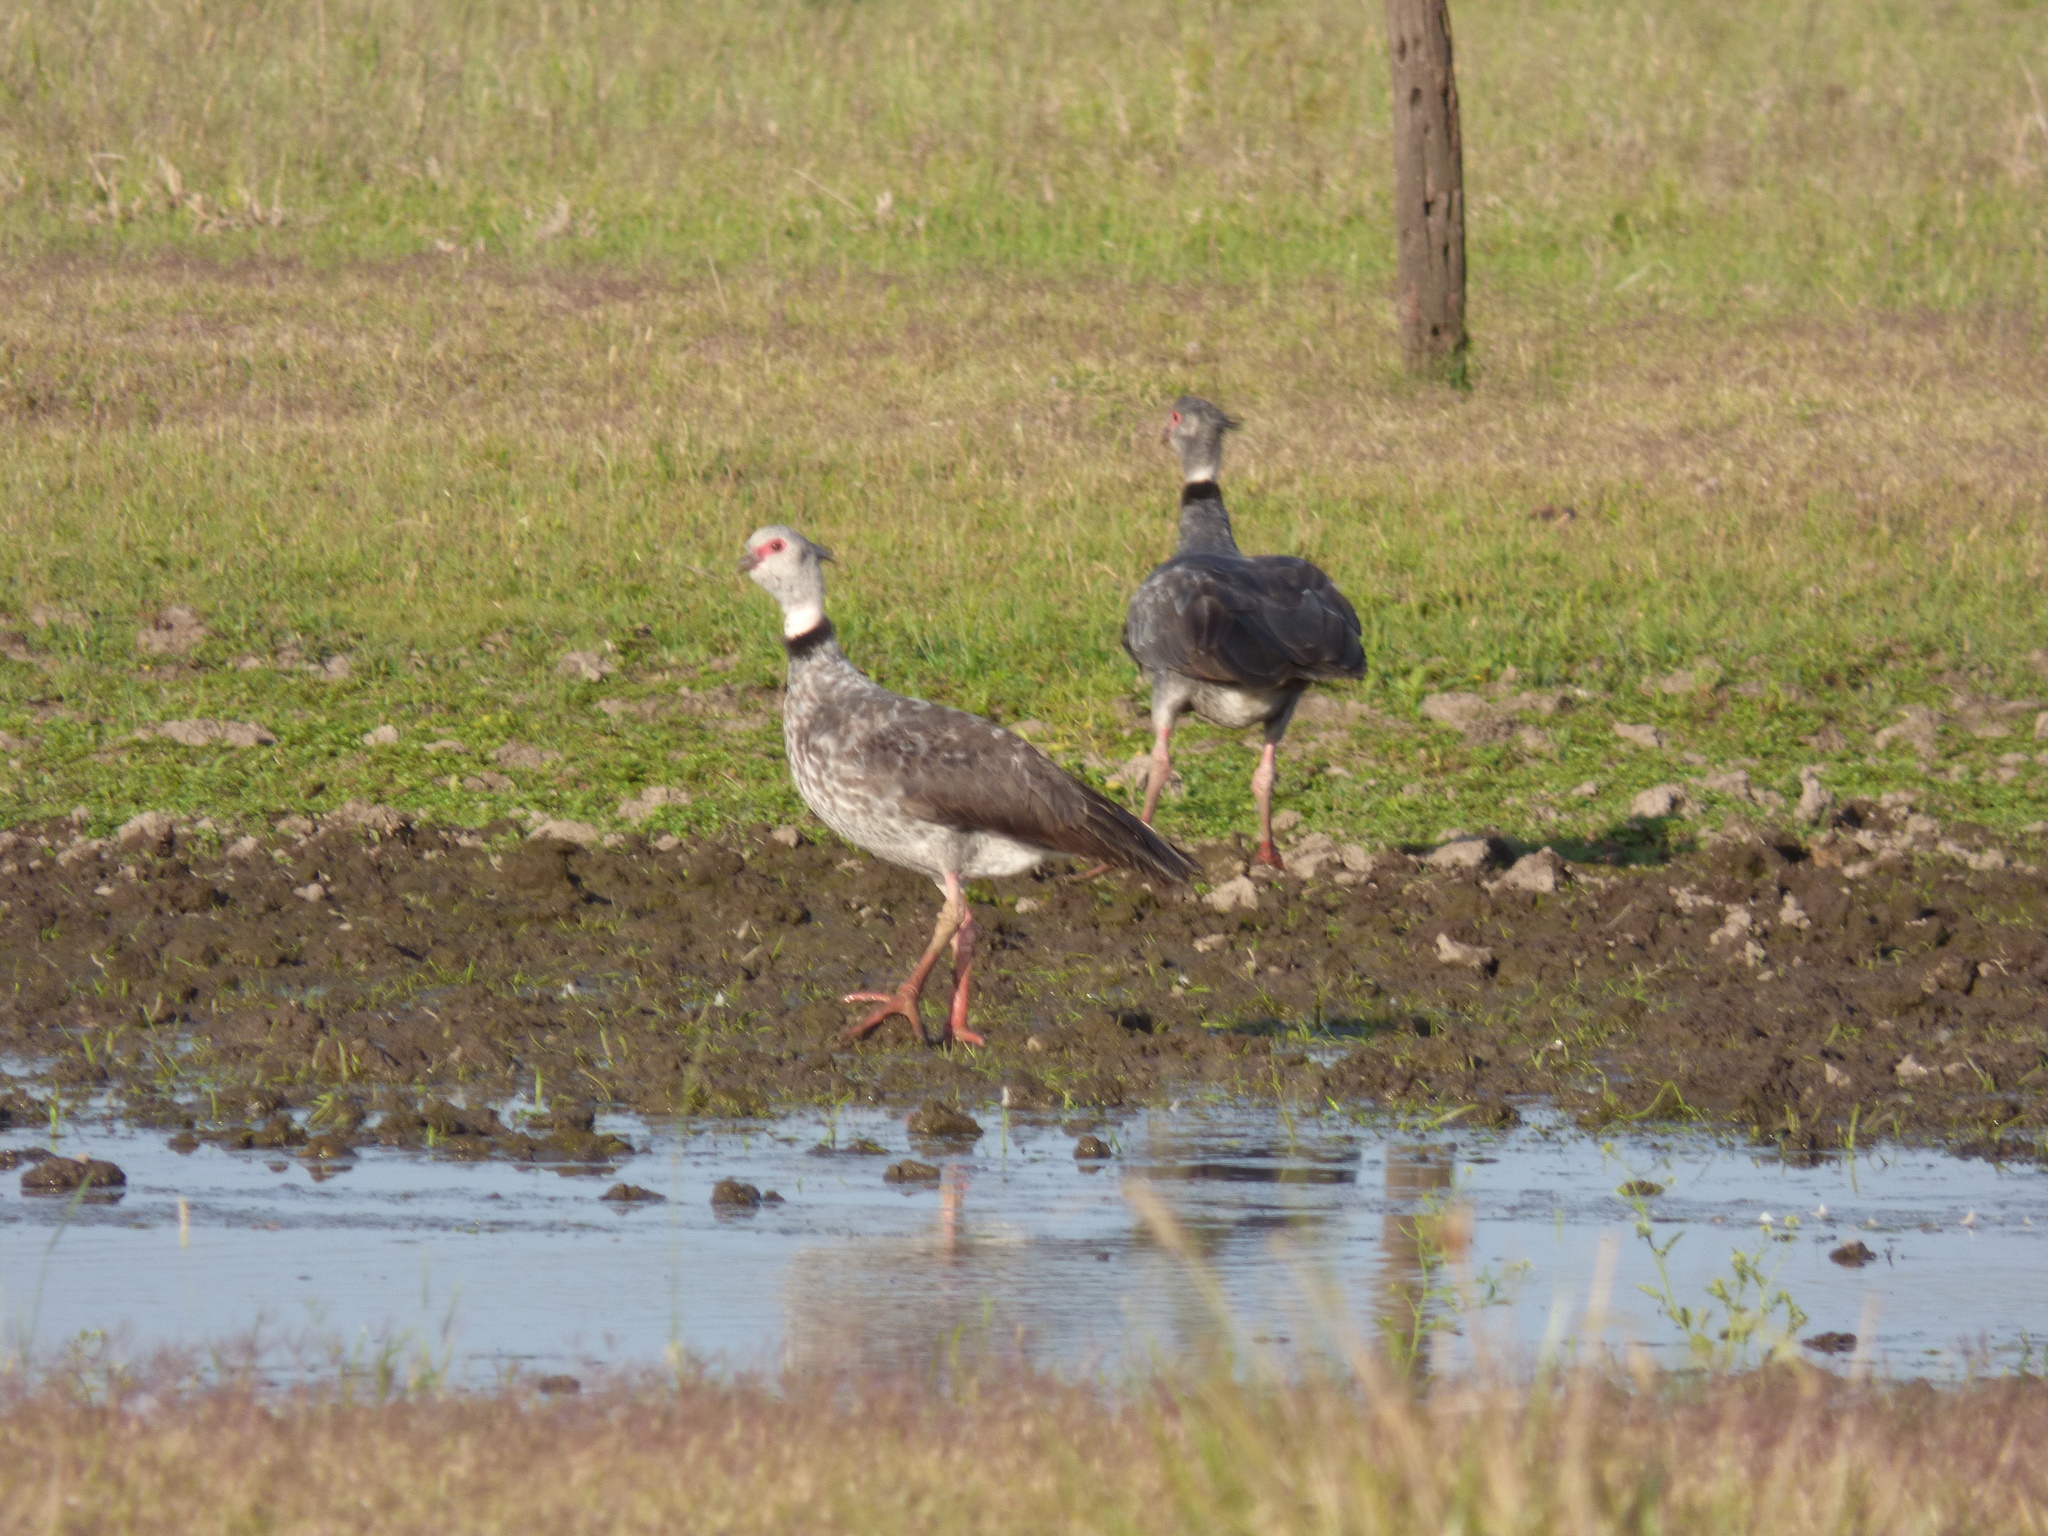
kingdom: Animalia
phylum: Chordata
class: Aves
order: Anseriformes
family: Anhimidae
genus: Chauna
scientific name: Chauna torquata
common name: Southern screamer
